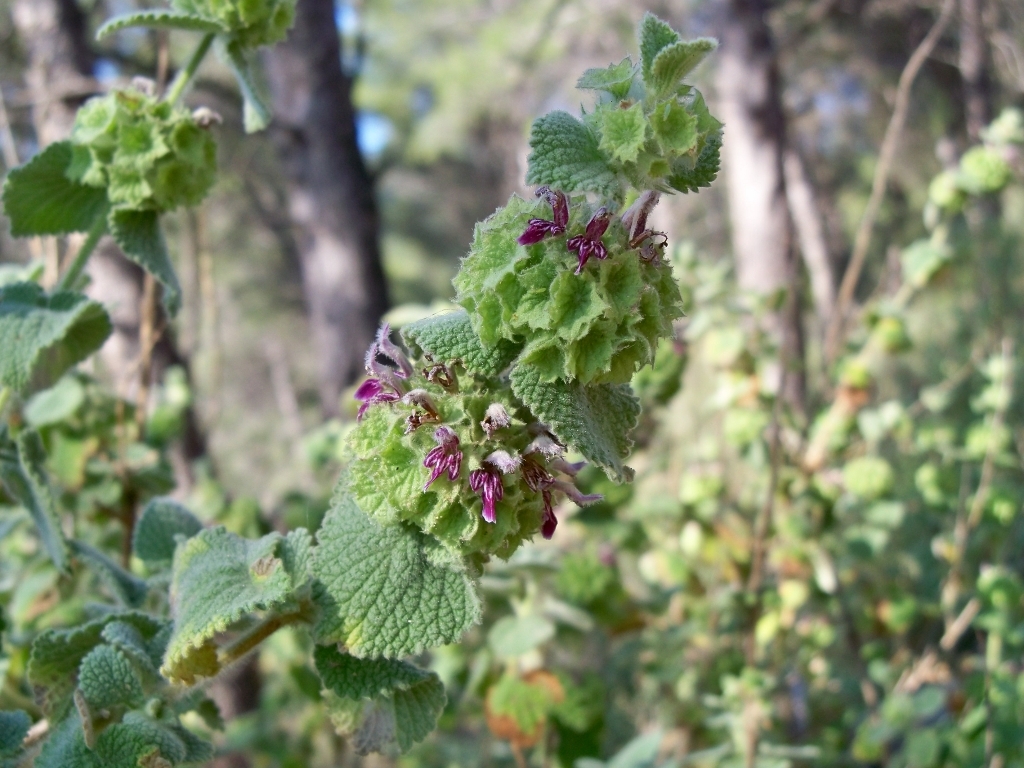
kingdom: Plantae
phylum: Tracheophyta
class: Magnoliopsida
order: Lamiales
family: Lamiaceae
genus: Pseudodictamnus
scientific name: Pseudodictamnus hirsutus
